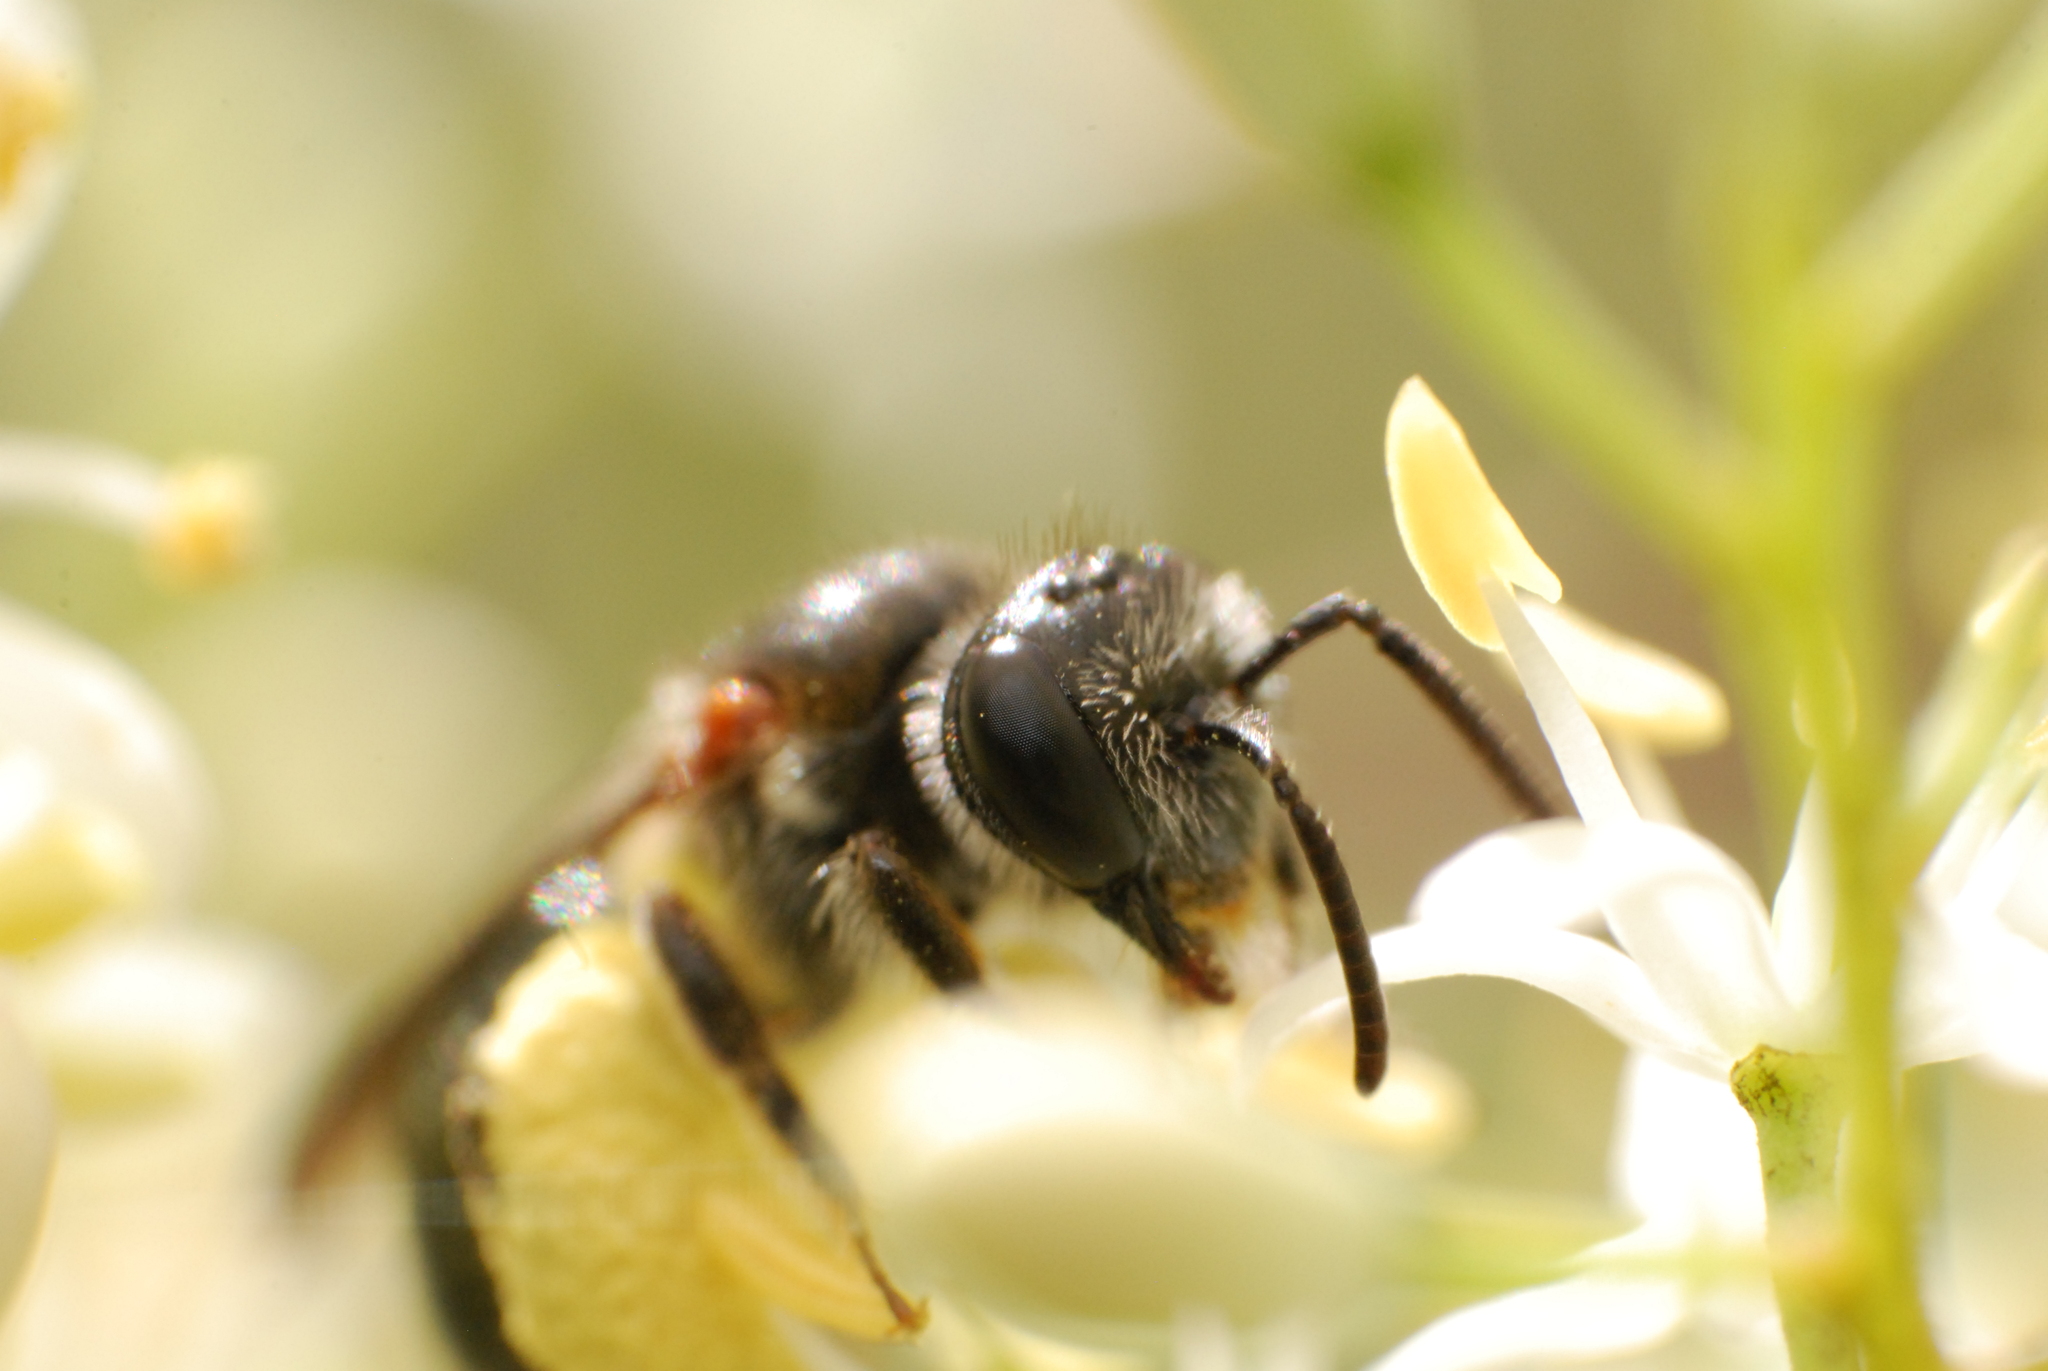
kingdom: Animalia
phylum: Arthropoda
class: Insecta
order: Hymenoptera
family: Colletidae
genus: Leioproctus
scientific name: Leioproctus launcestonensis
